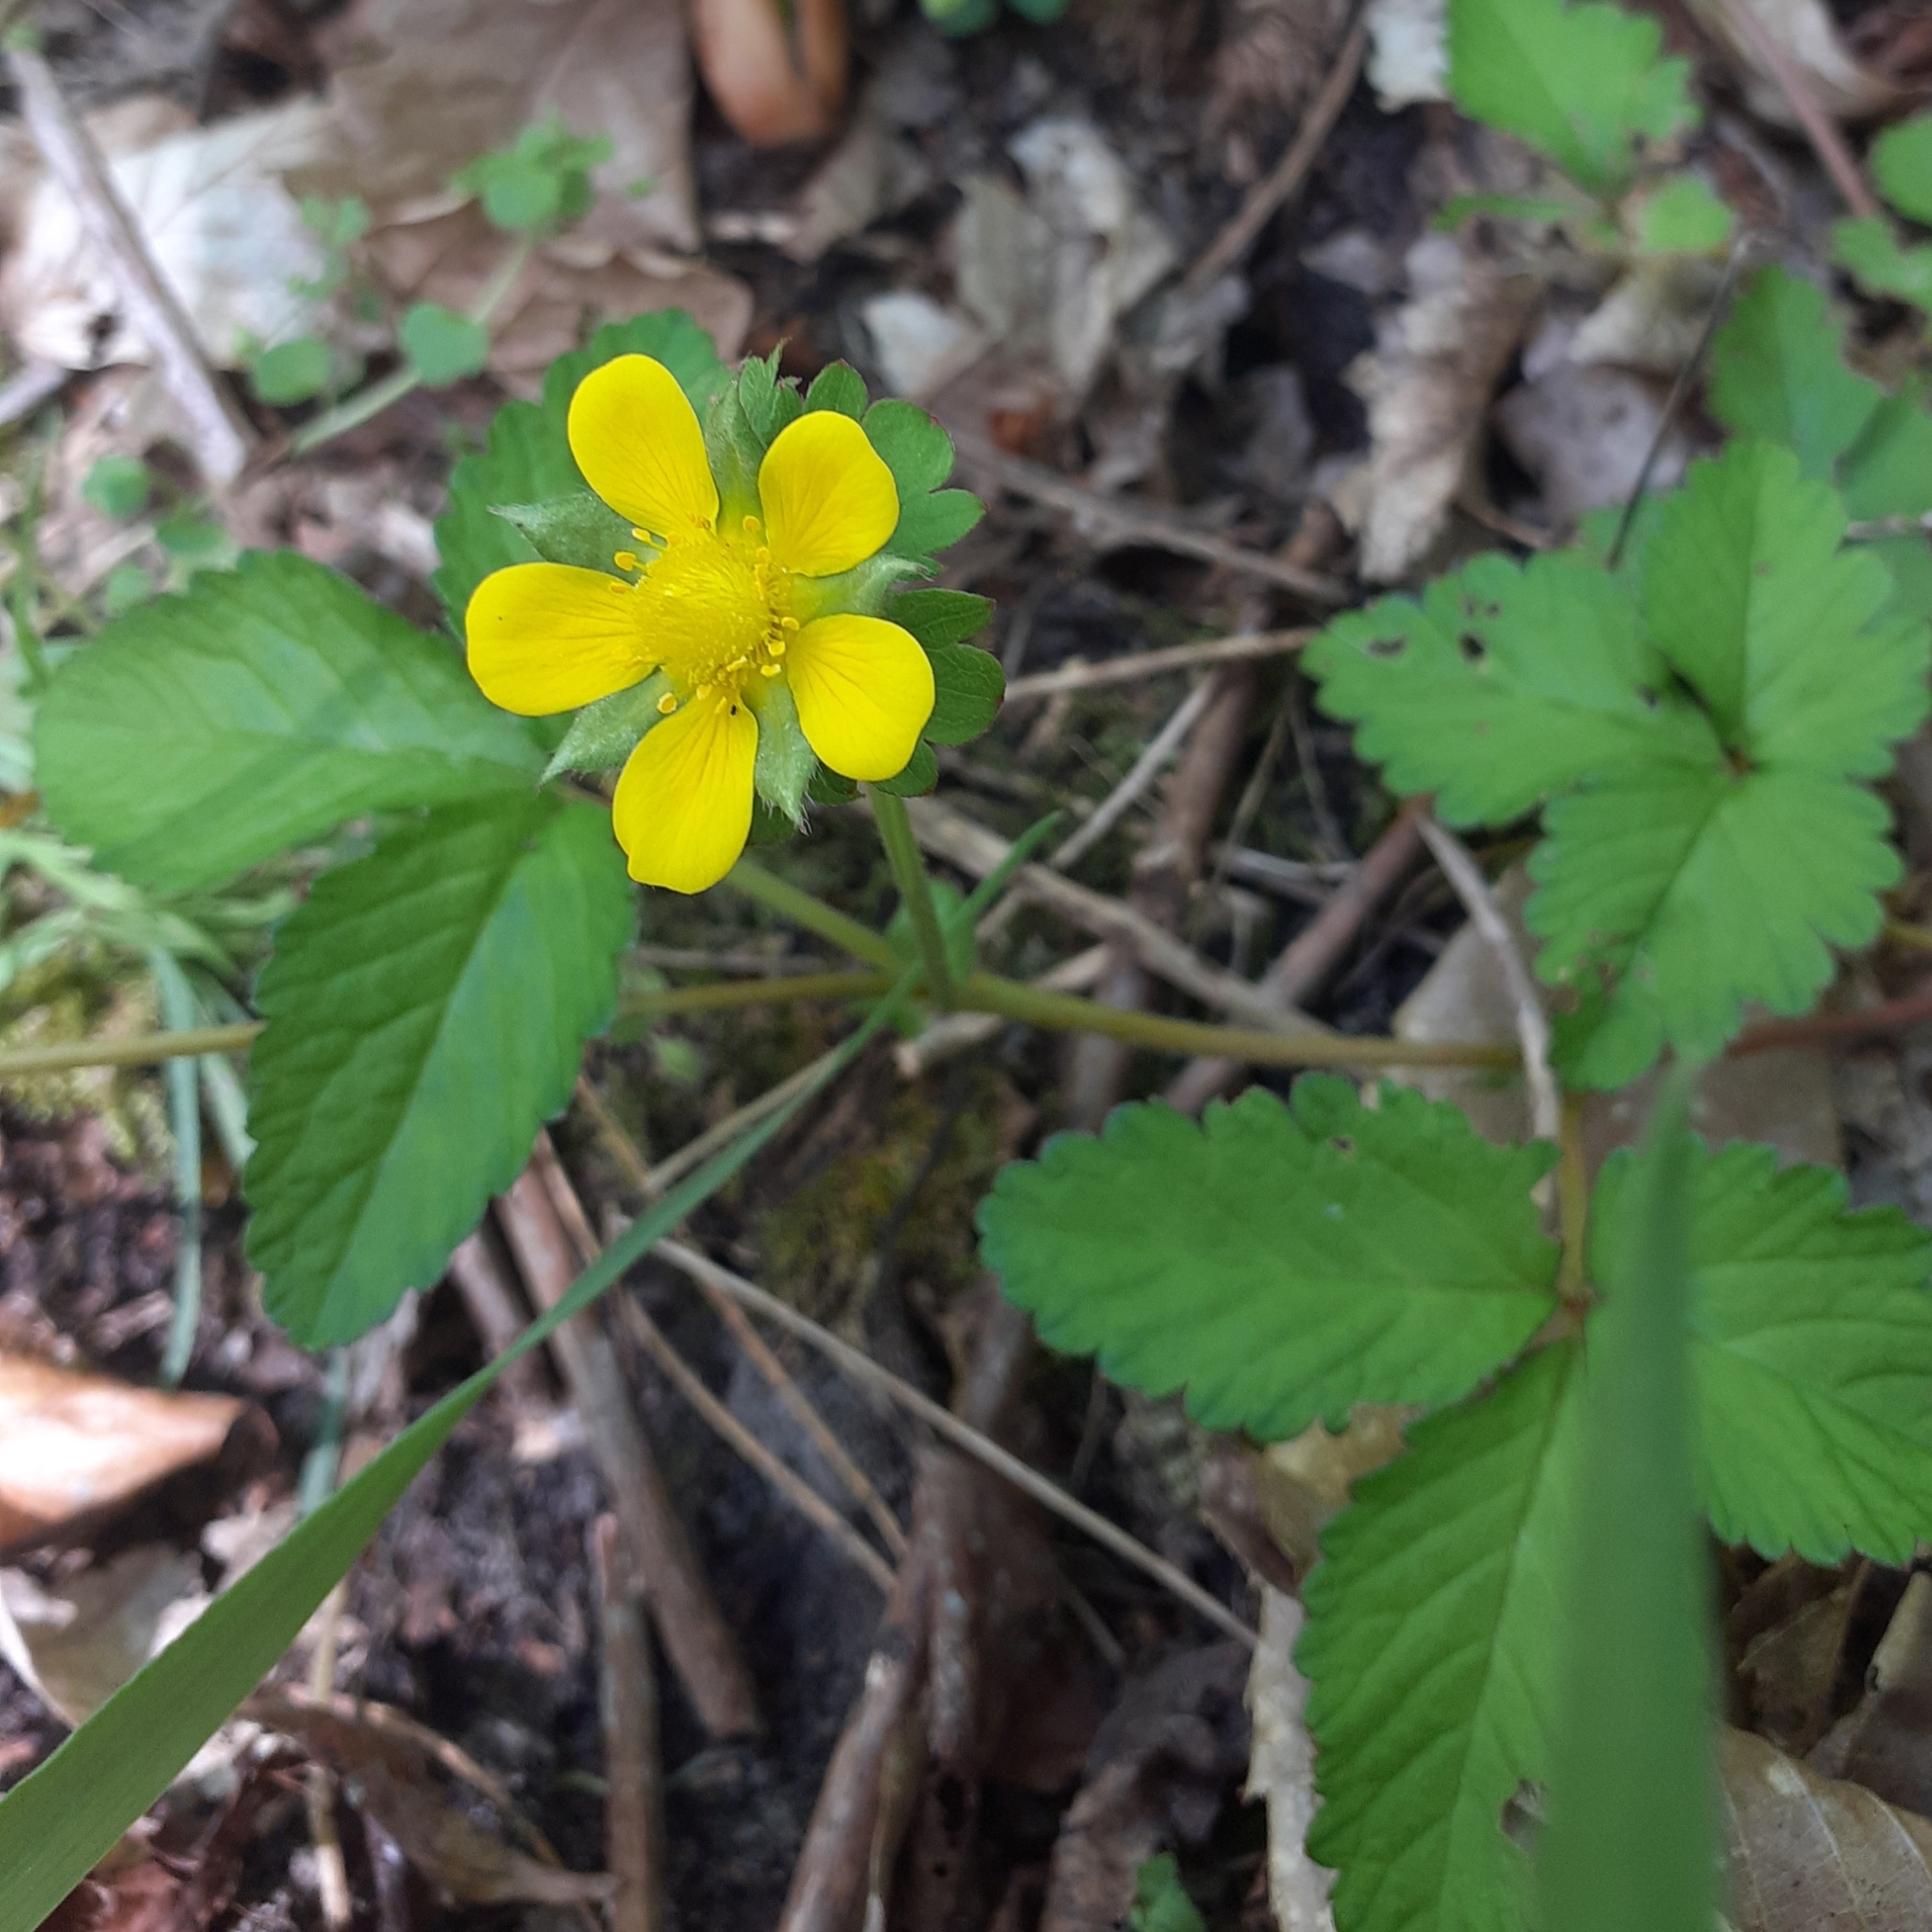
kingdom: Plantae
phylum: Tracheophyta
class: Magnoliopsida
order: Rosales
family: Rosaceae
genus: Potentilla
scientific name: Potentilla indica
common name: Yellow-flowered strawberry
